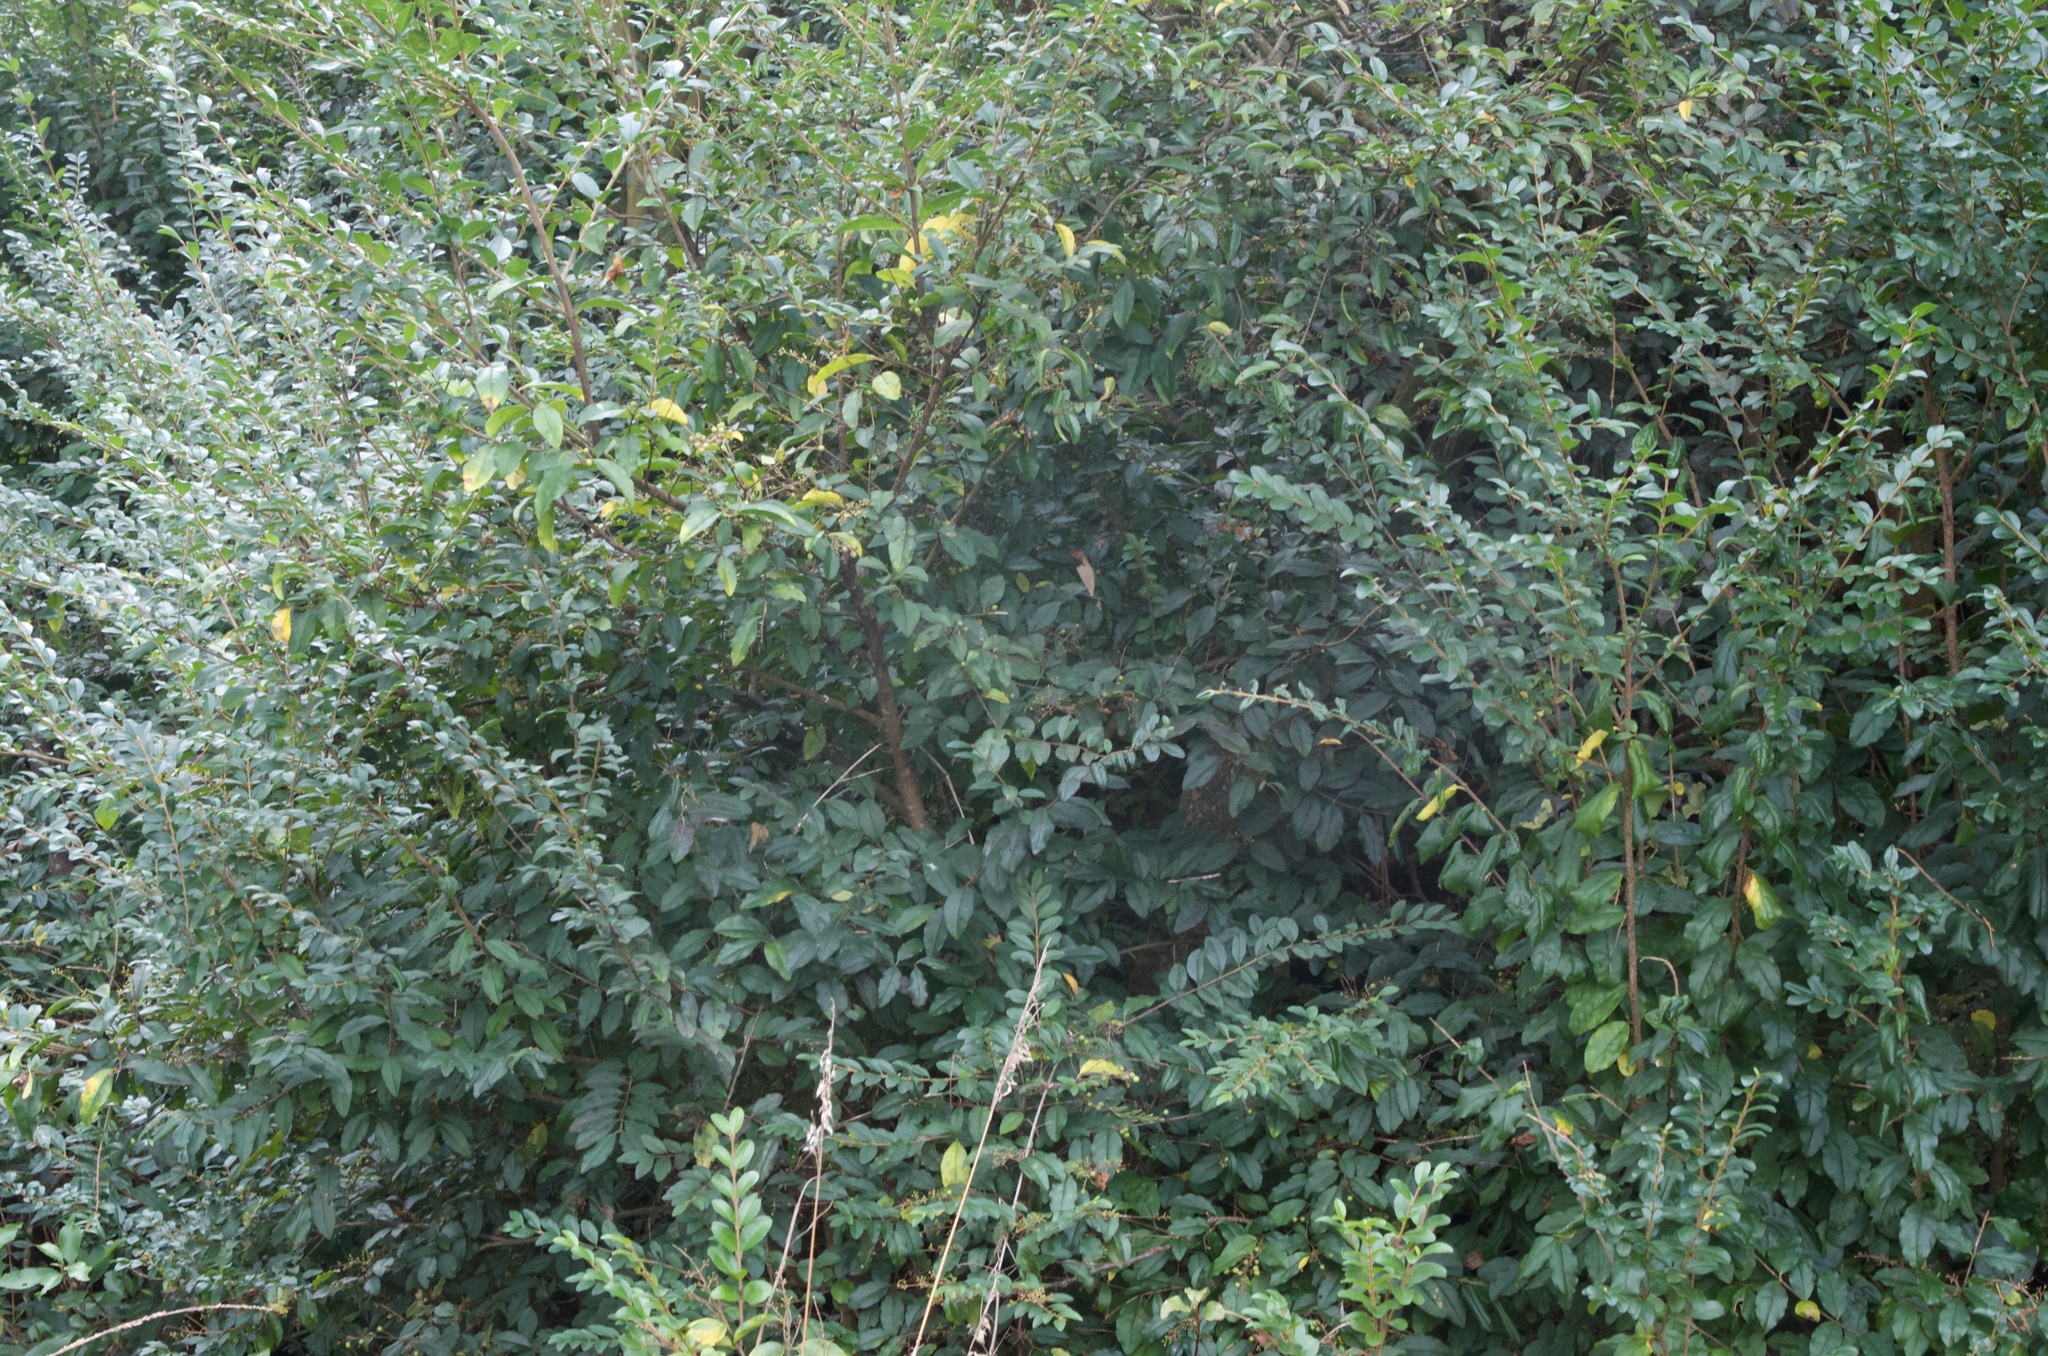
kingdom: Plantae
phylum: Tracheophyta
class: Magnoliopsida
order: Lamiales
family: Oleaceae
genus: Ligustrum
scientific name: Ligustrum sinense
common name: Chinese privet
